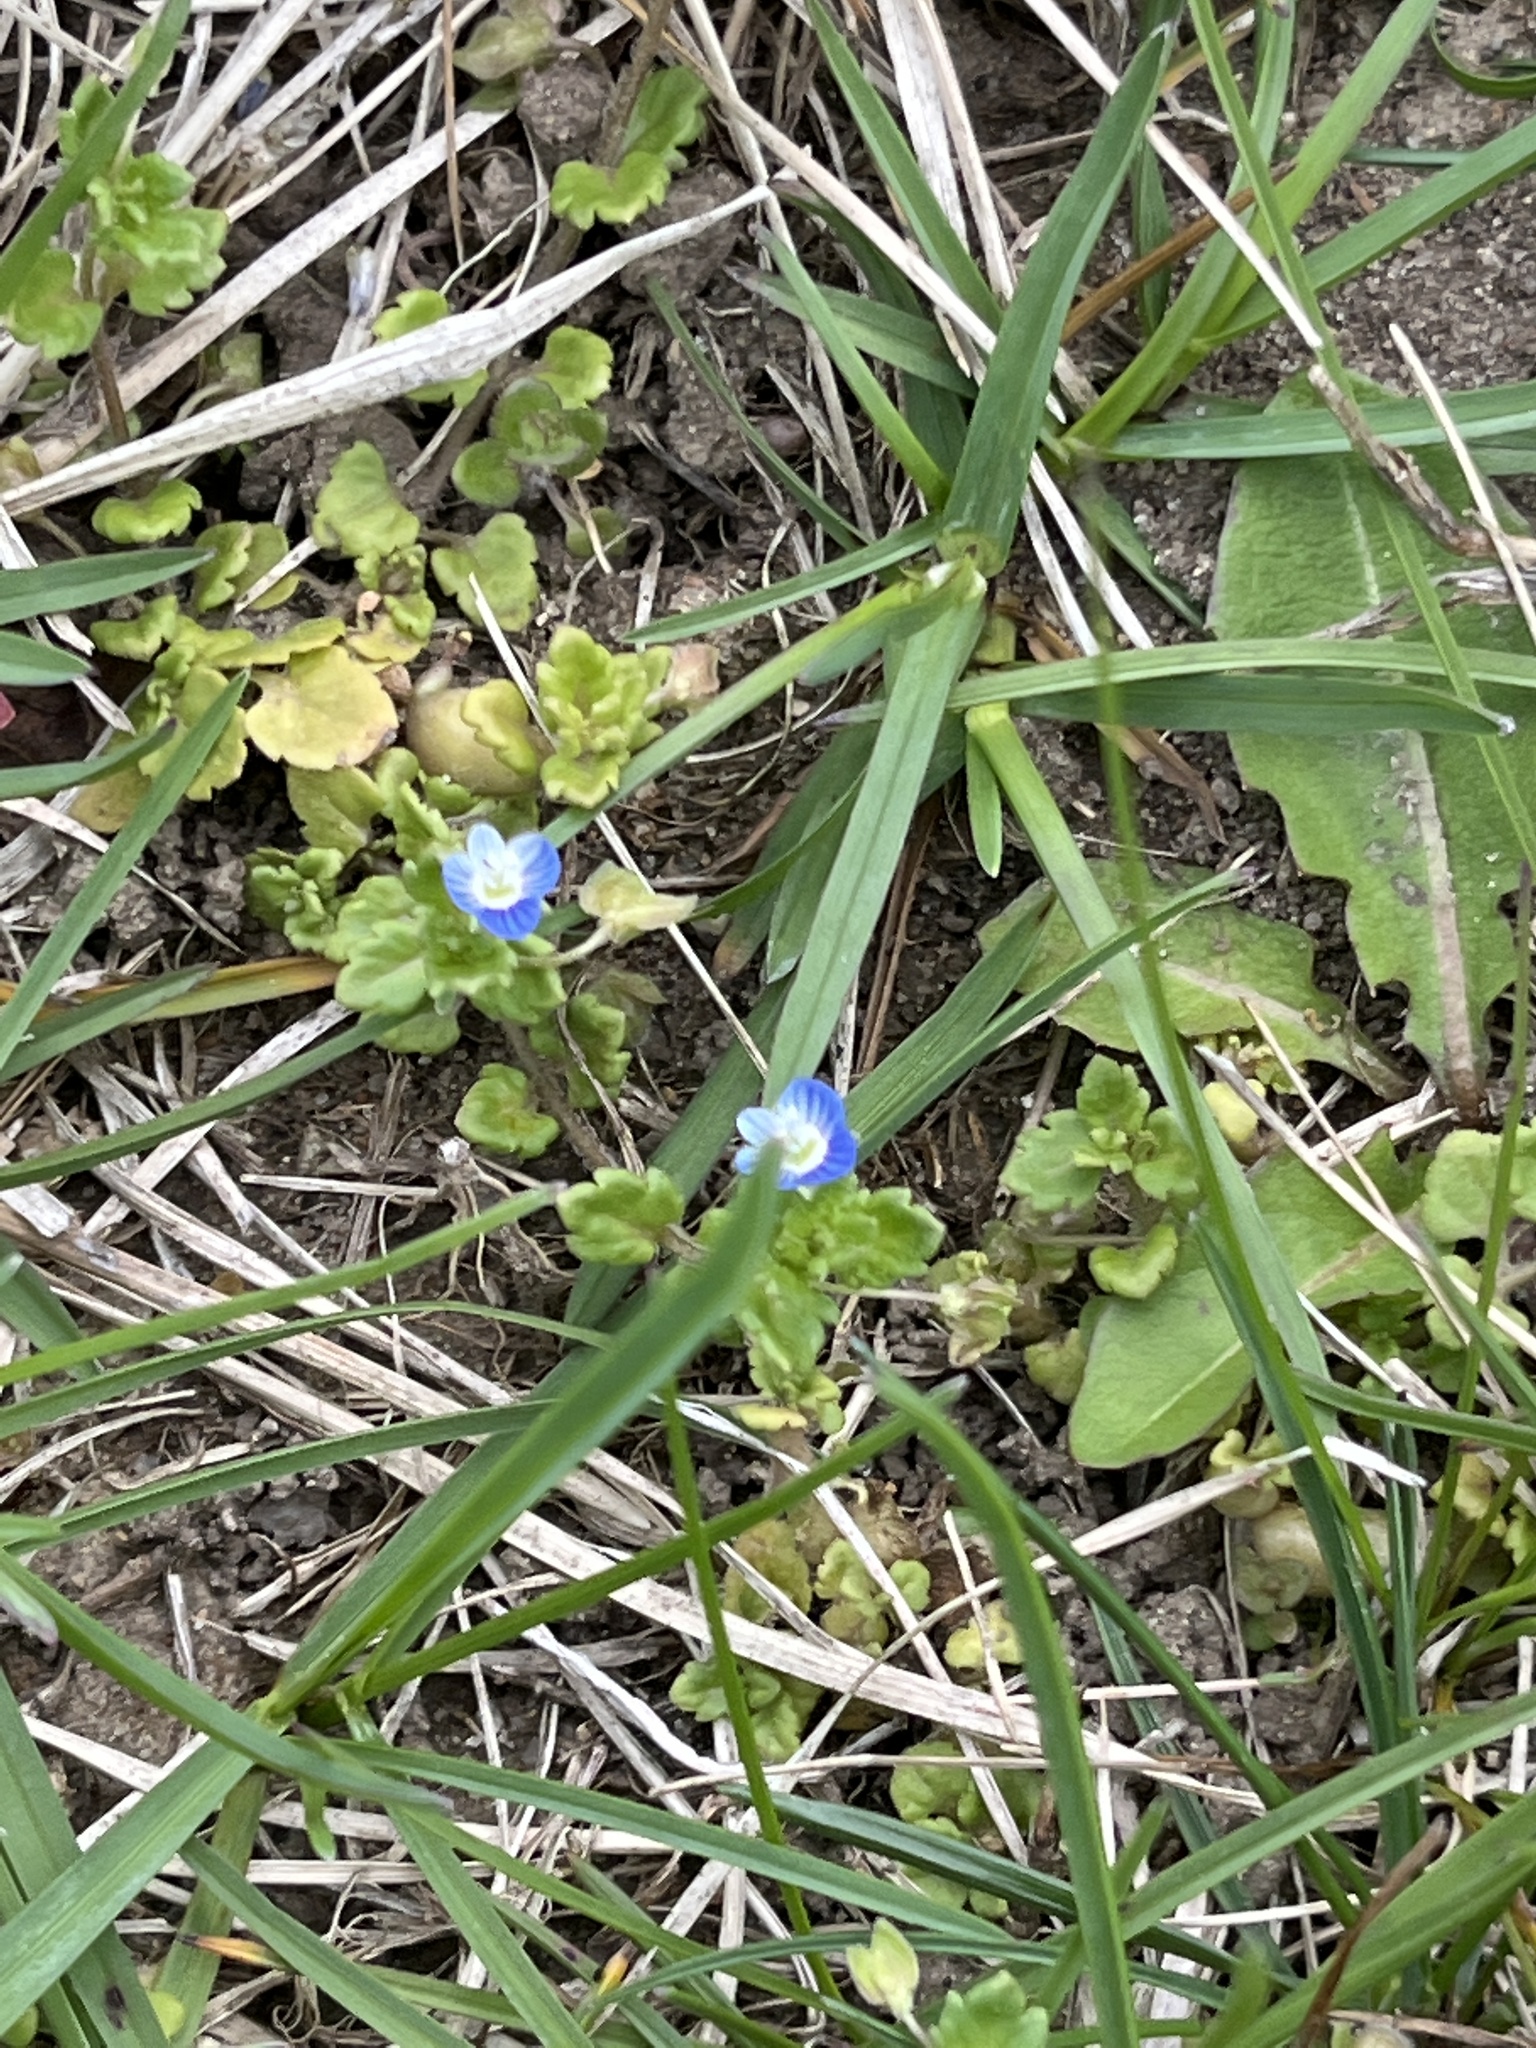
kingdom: Plantae
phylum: Tracheophyta
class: Magnoliopsida
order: Lamiales
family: Plantaginaceae
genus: Veronica
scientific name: Veronica polita
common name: Grey field-speedwell
